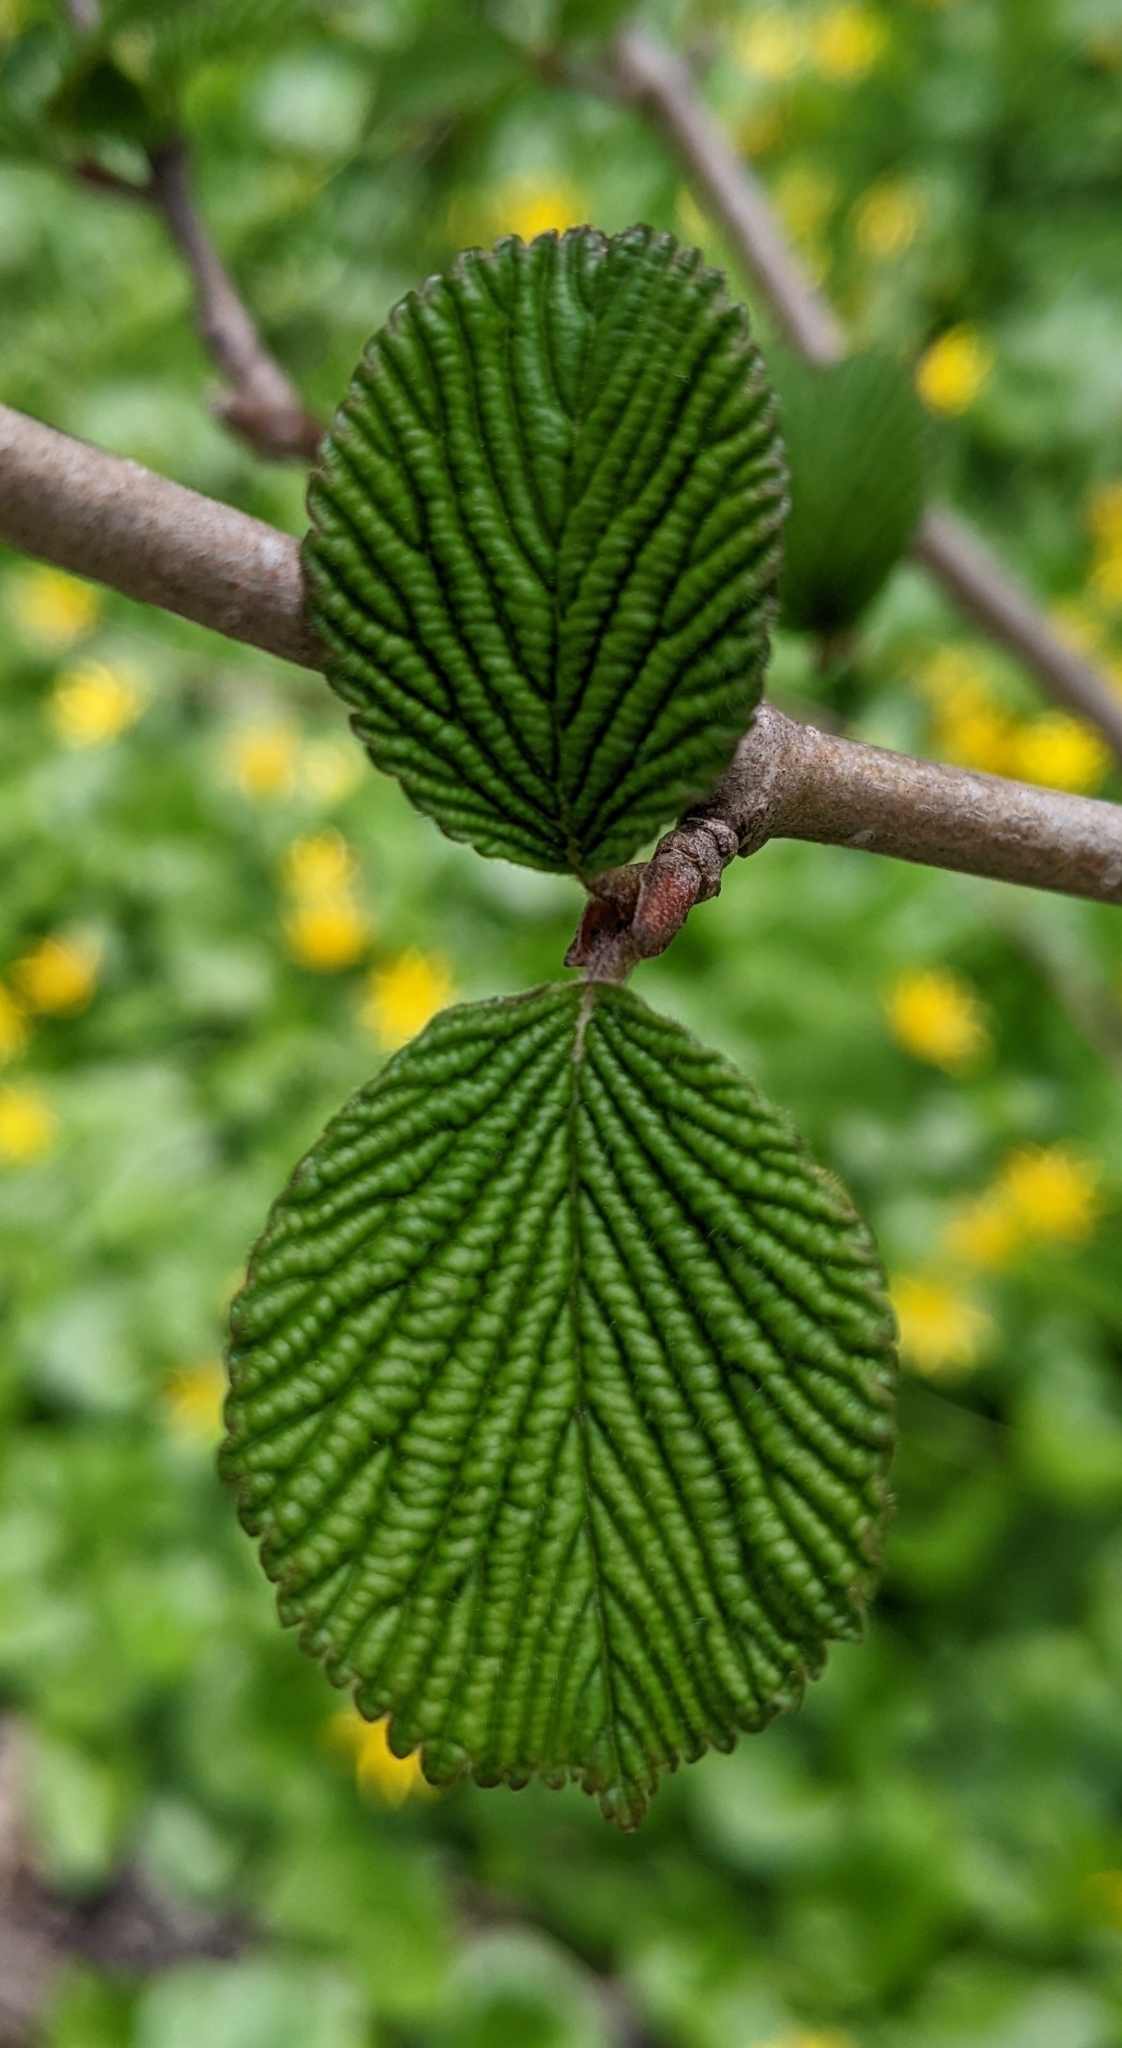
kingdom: Plantae
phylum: Tracheophyta
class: Magnoliopsida
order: Dipsacales
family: Viburnaceae
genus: Viburnum
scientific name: Viburnum plicatum
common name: Japanese snowball
